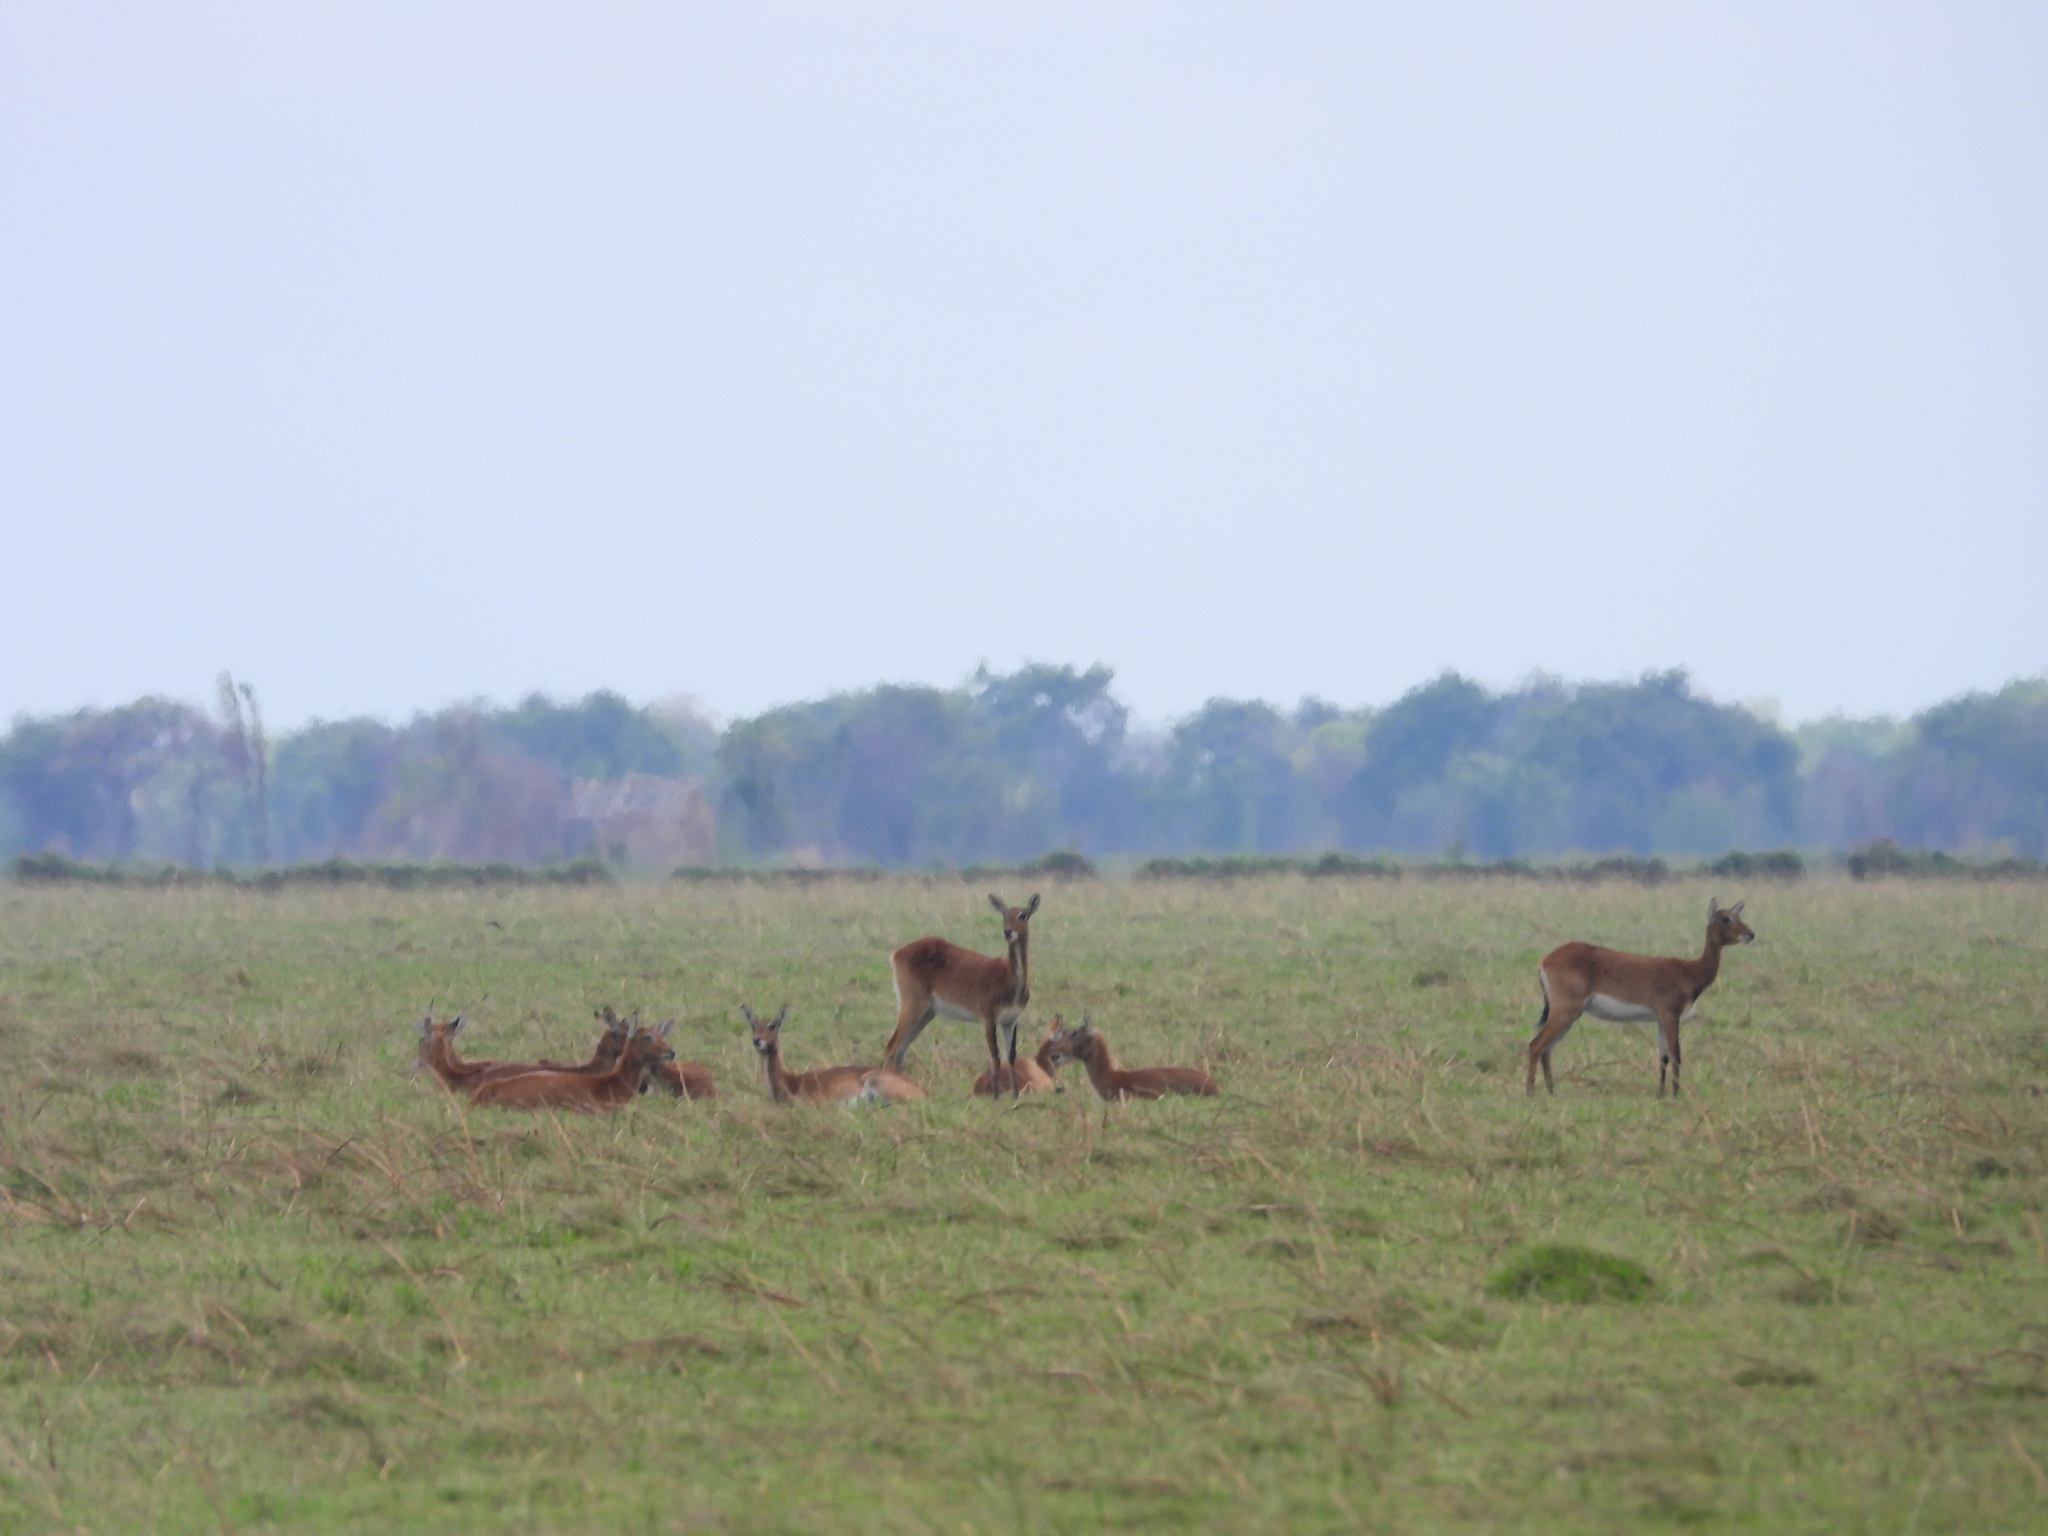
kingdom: Animalia
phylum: Chordata
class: Mammalia
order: Artiodactyla
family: Bovidae
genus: Kobus
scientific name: Kobus leche
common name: Lechwe
